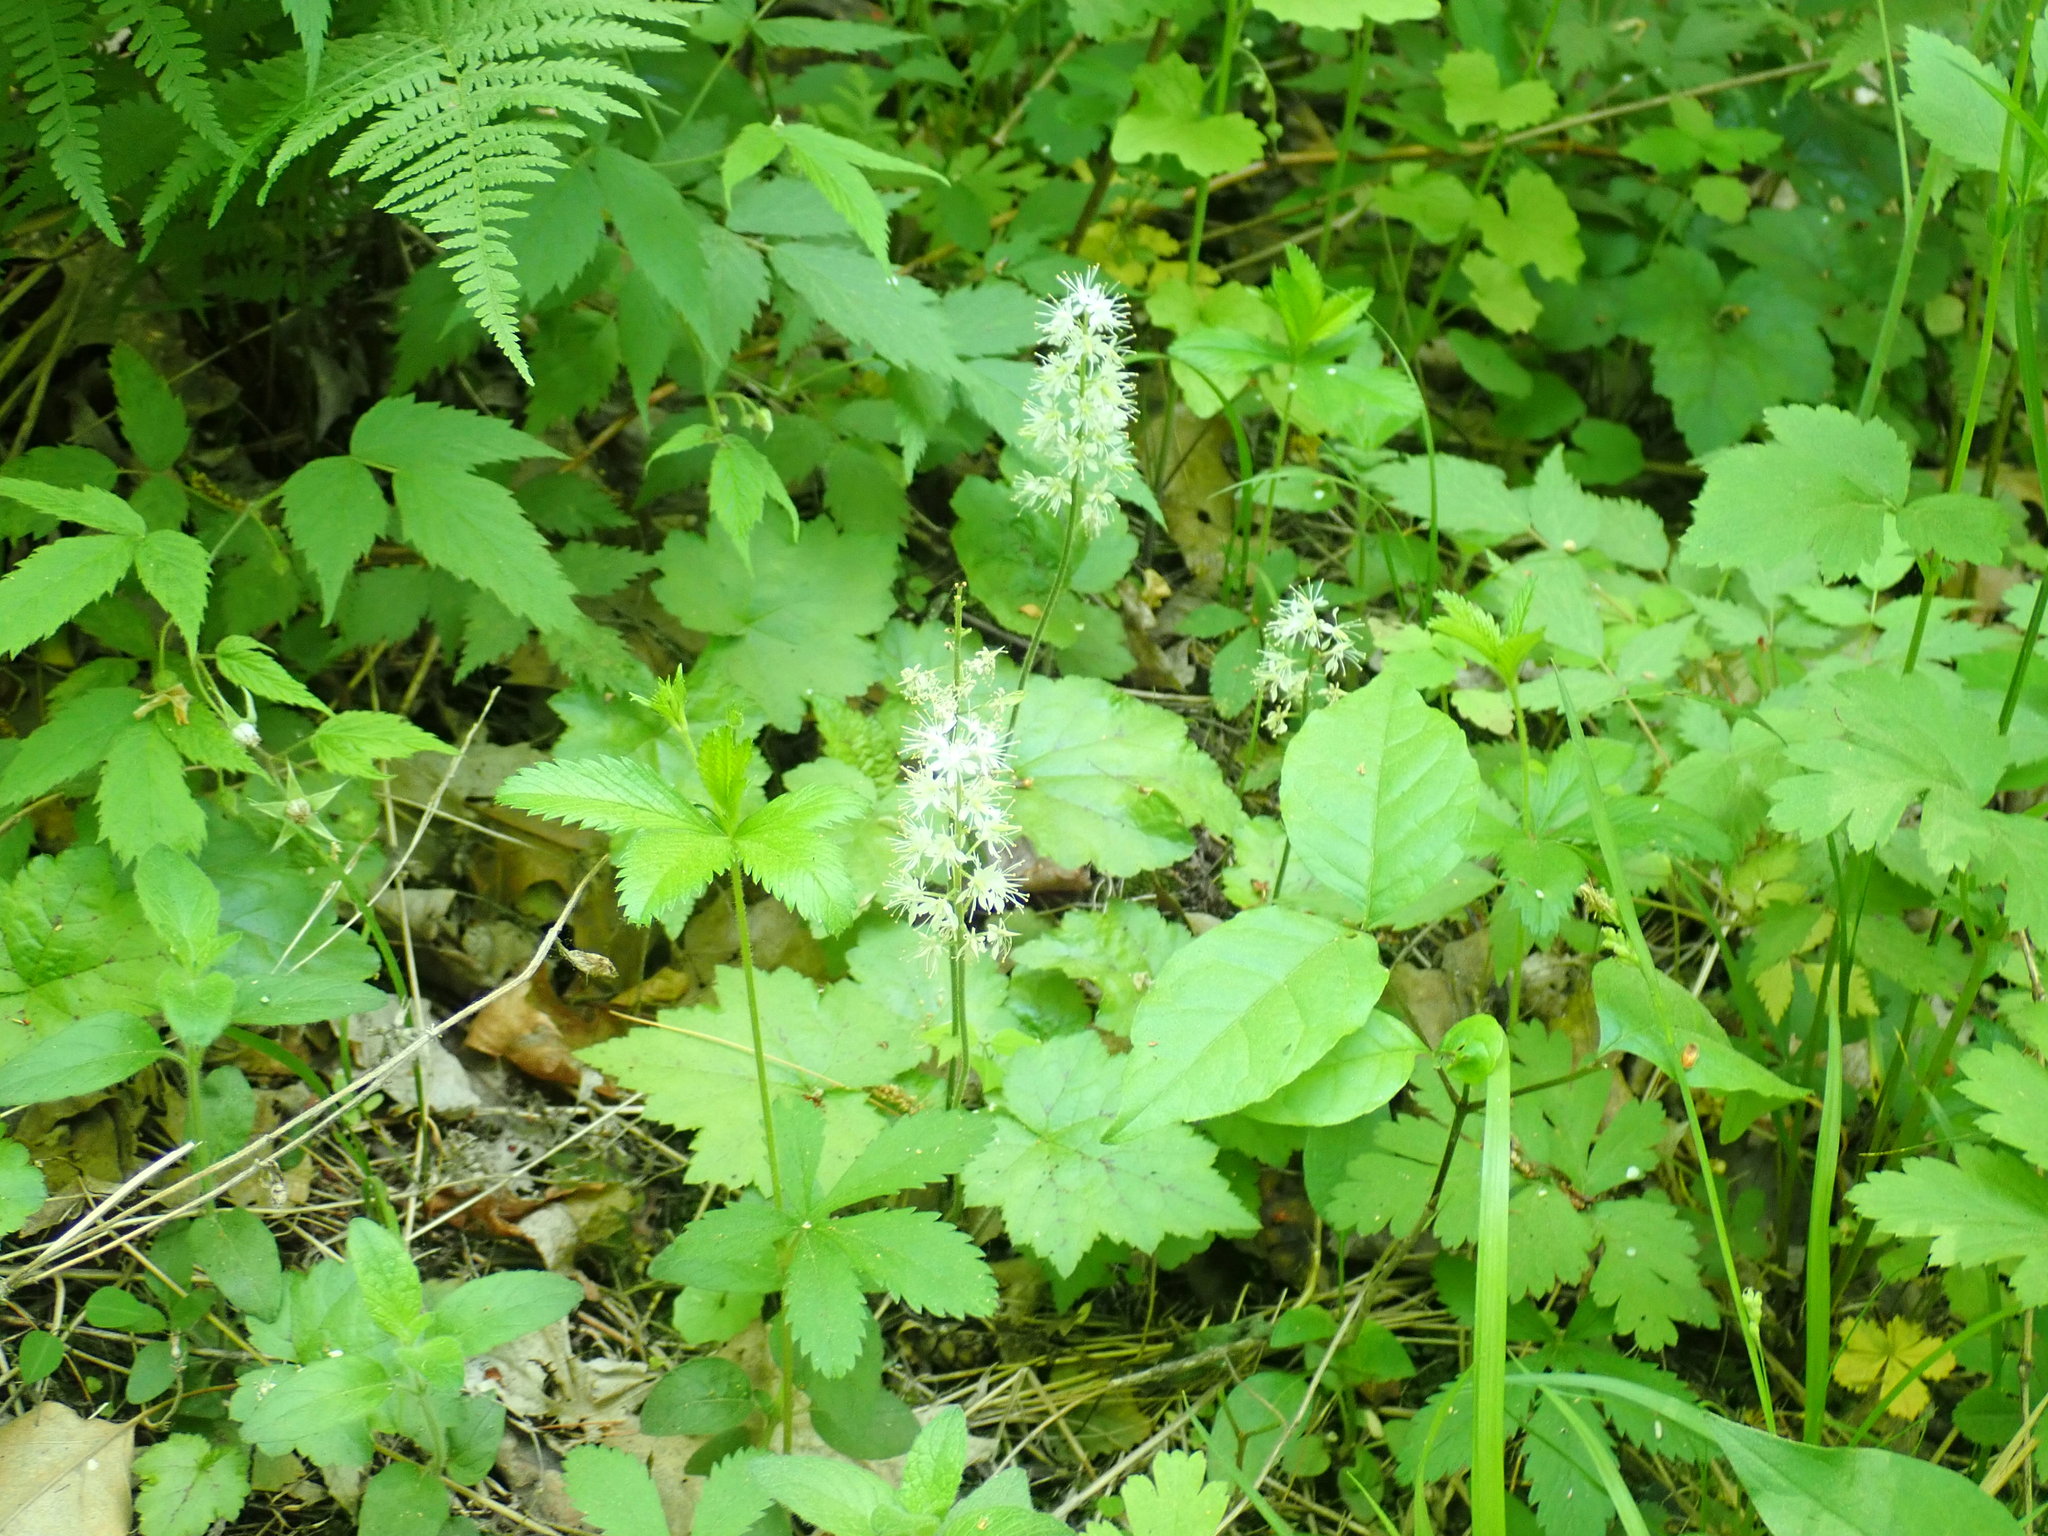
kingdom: Plantae
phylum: Tracheophyta
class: Magnoliopsida
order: Saxifragales
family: Saxifragaceae
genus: Tiarella
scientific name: Tiarella stolonifera
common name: Stoloniferous foamflower
